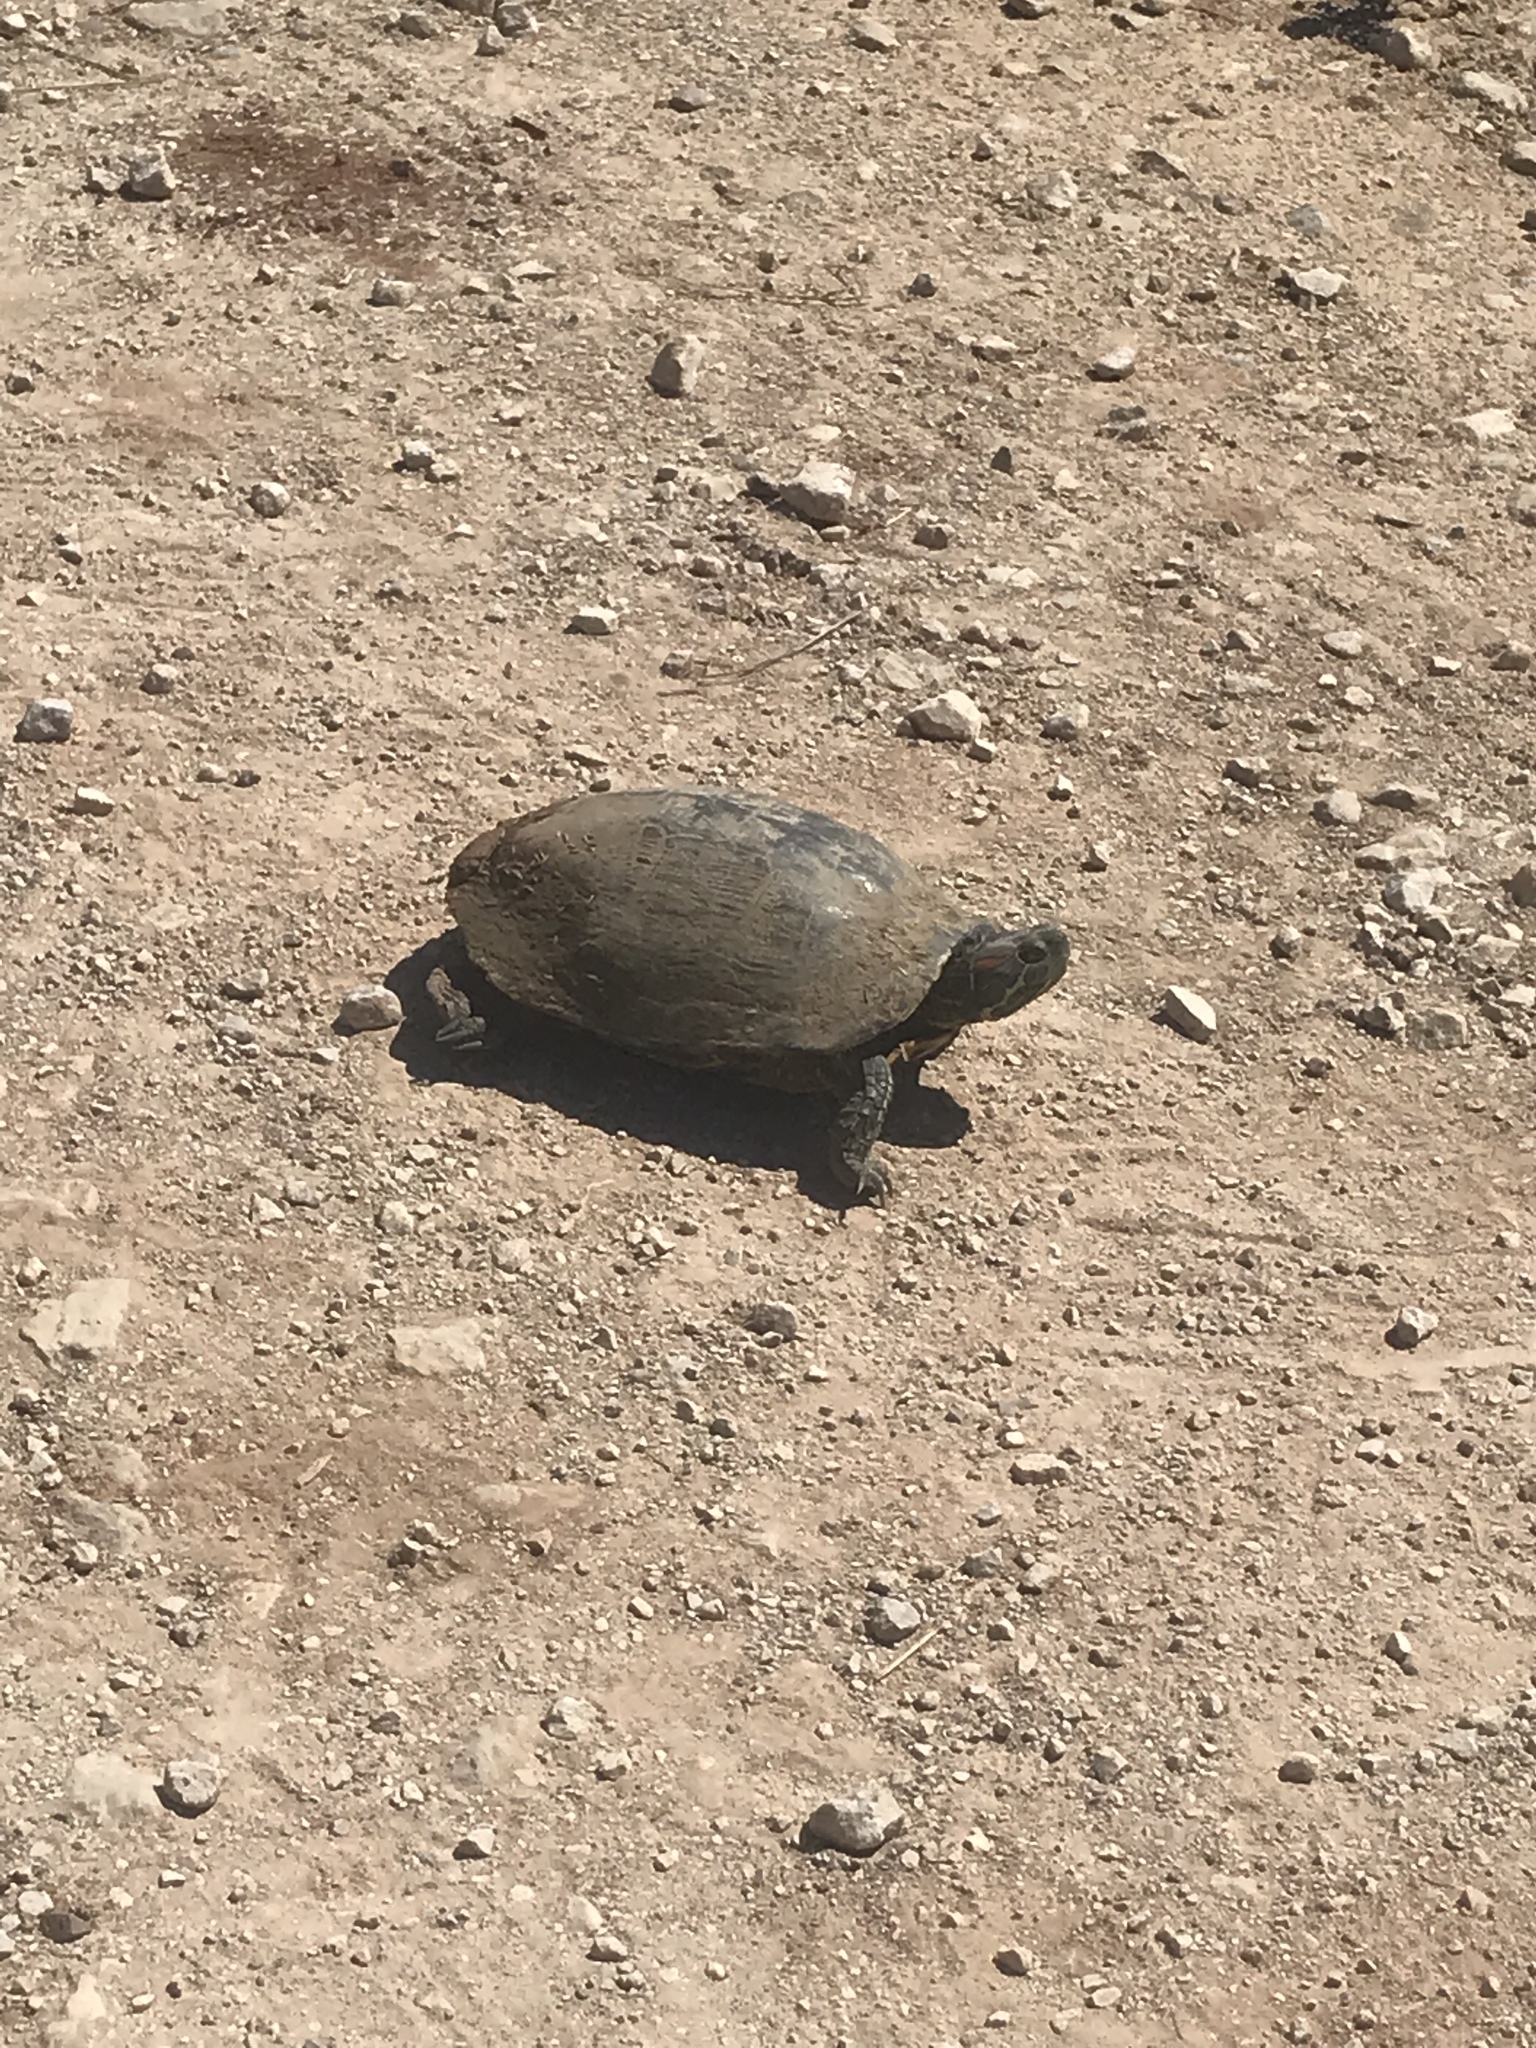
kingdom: Animalia
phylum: Chordata
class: Testudines
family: Emydidae
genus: Trachemys
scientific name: Trachemys scripta
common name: Slider
